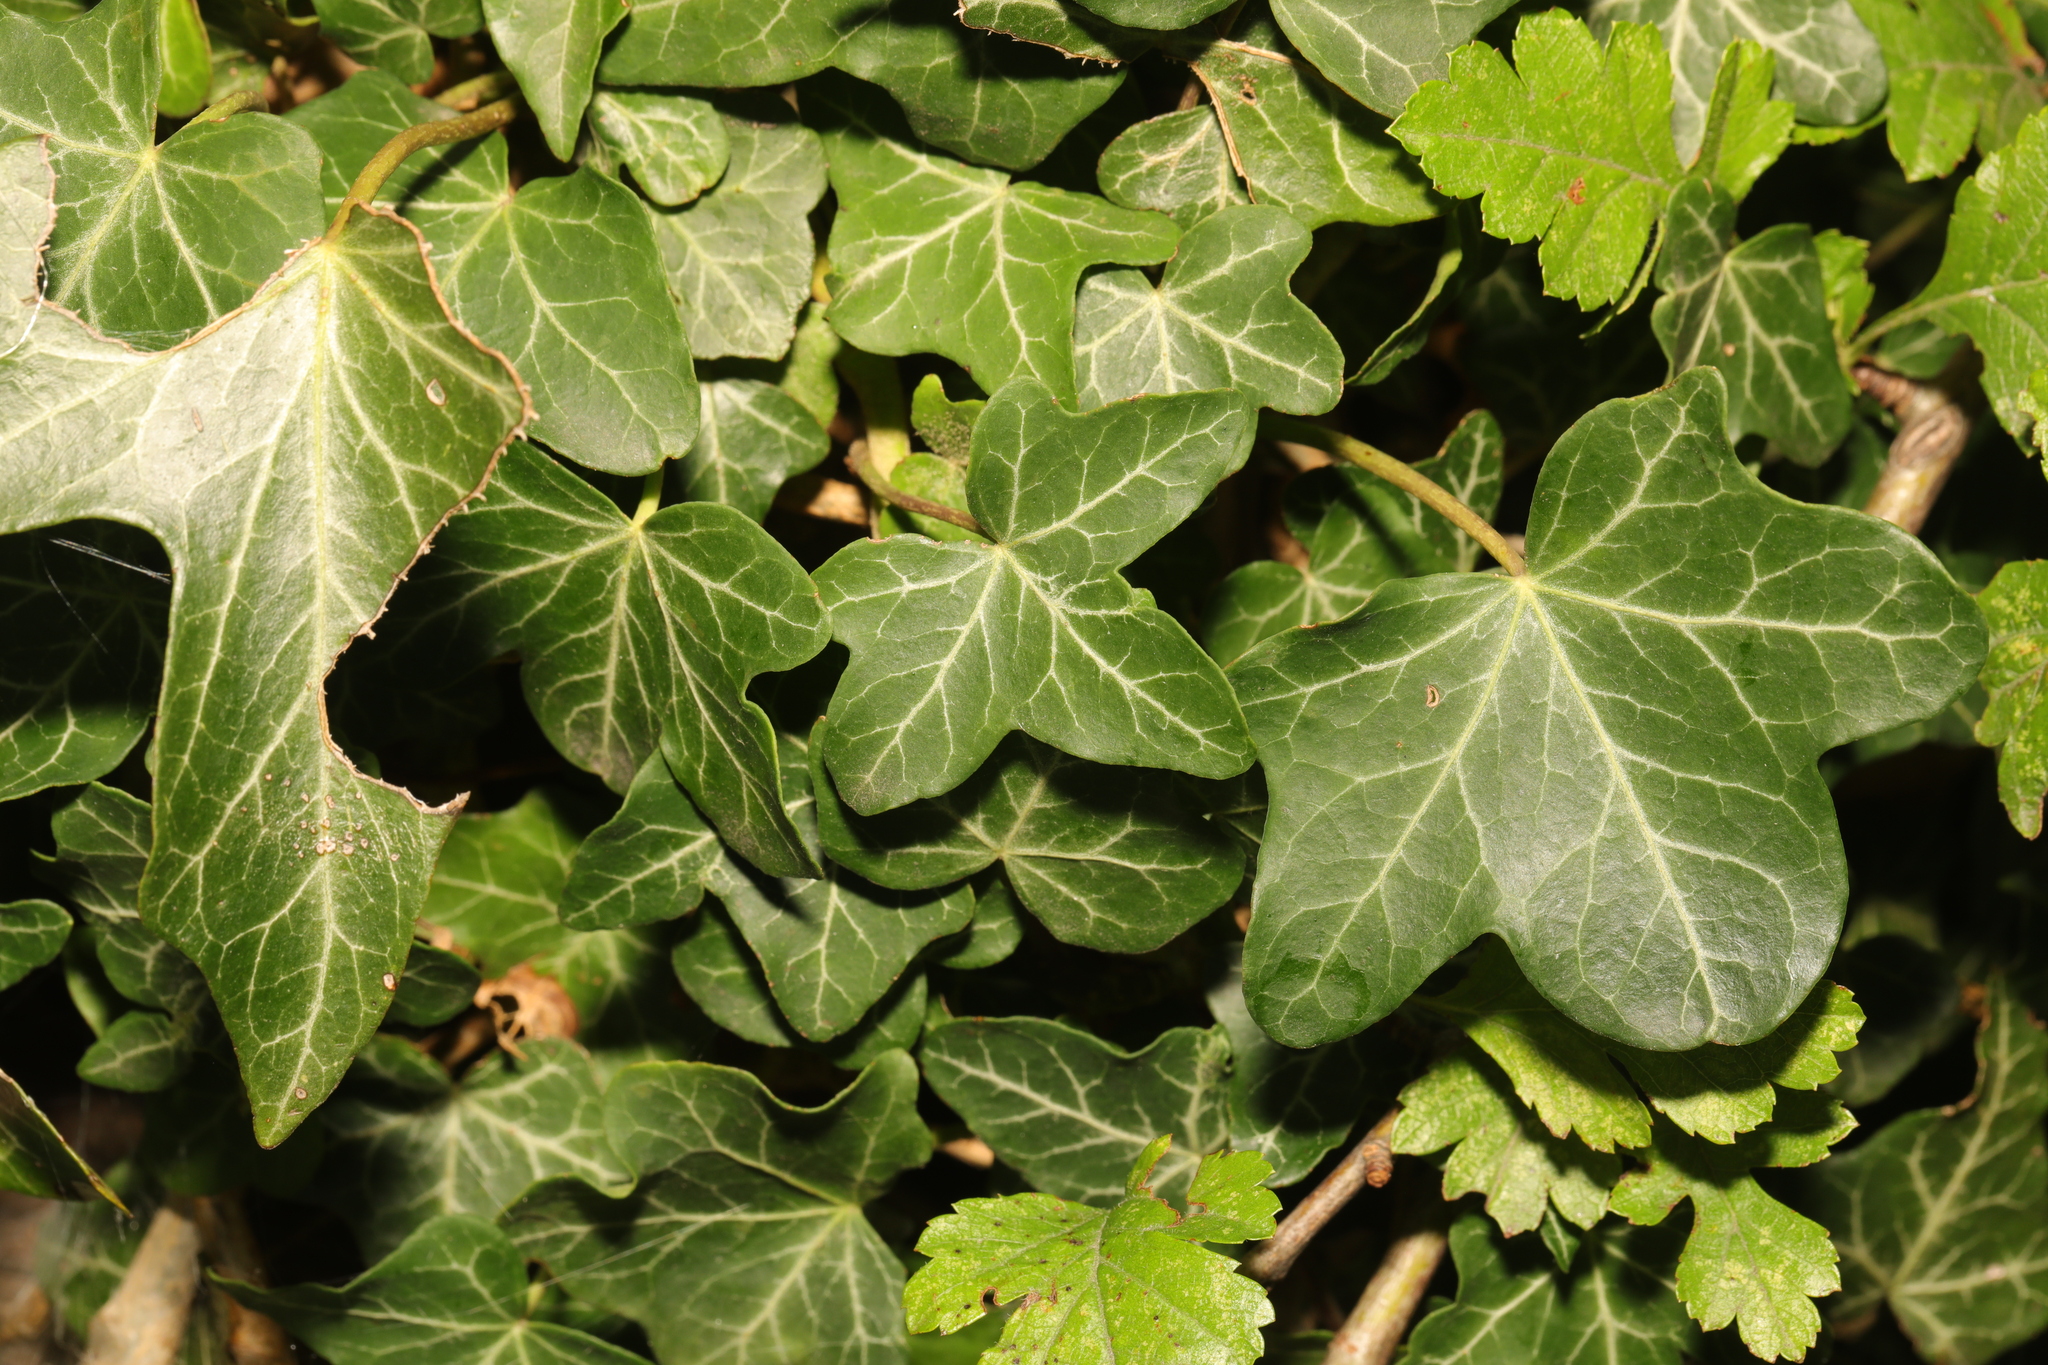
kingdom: Plantae
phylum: Tracheophyta
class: Magnoliopsida
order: Apiales
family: Araliaceae
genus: Hedera
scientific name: Hedera helix
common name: Ivy
